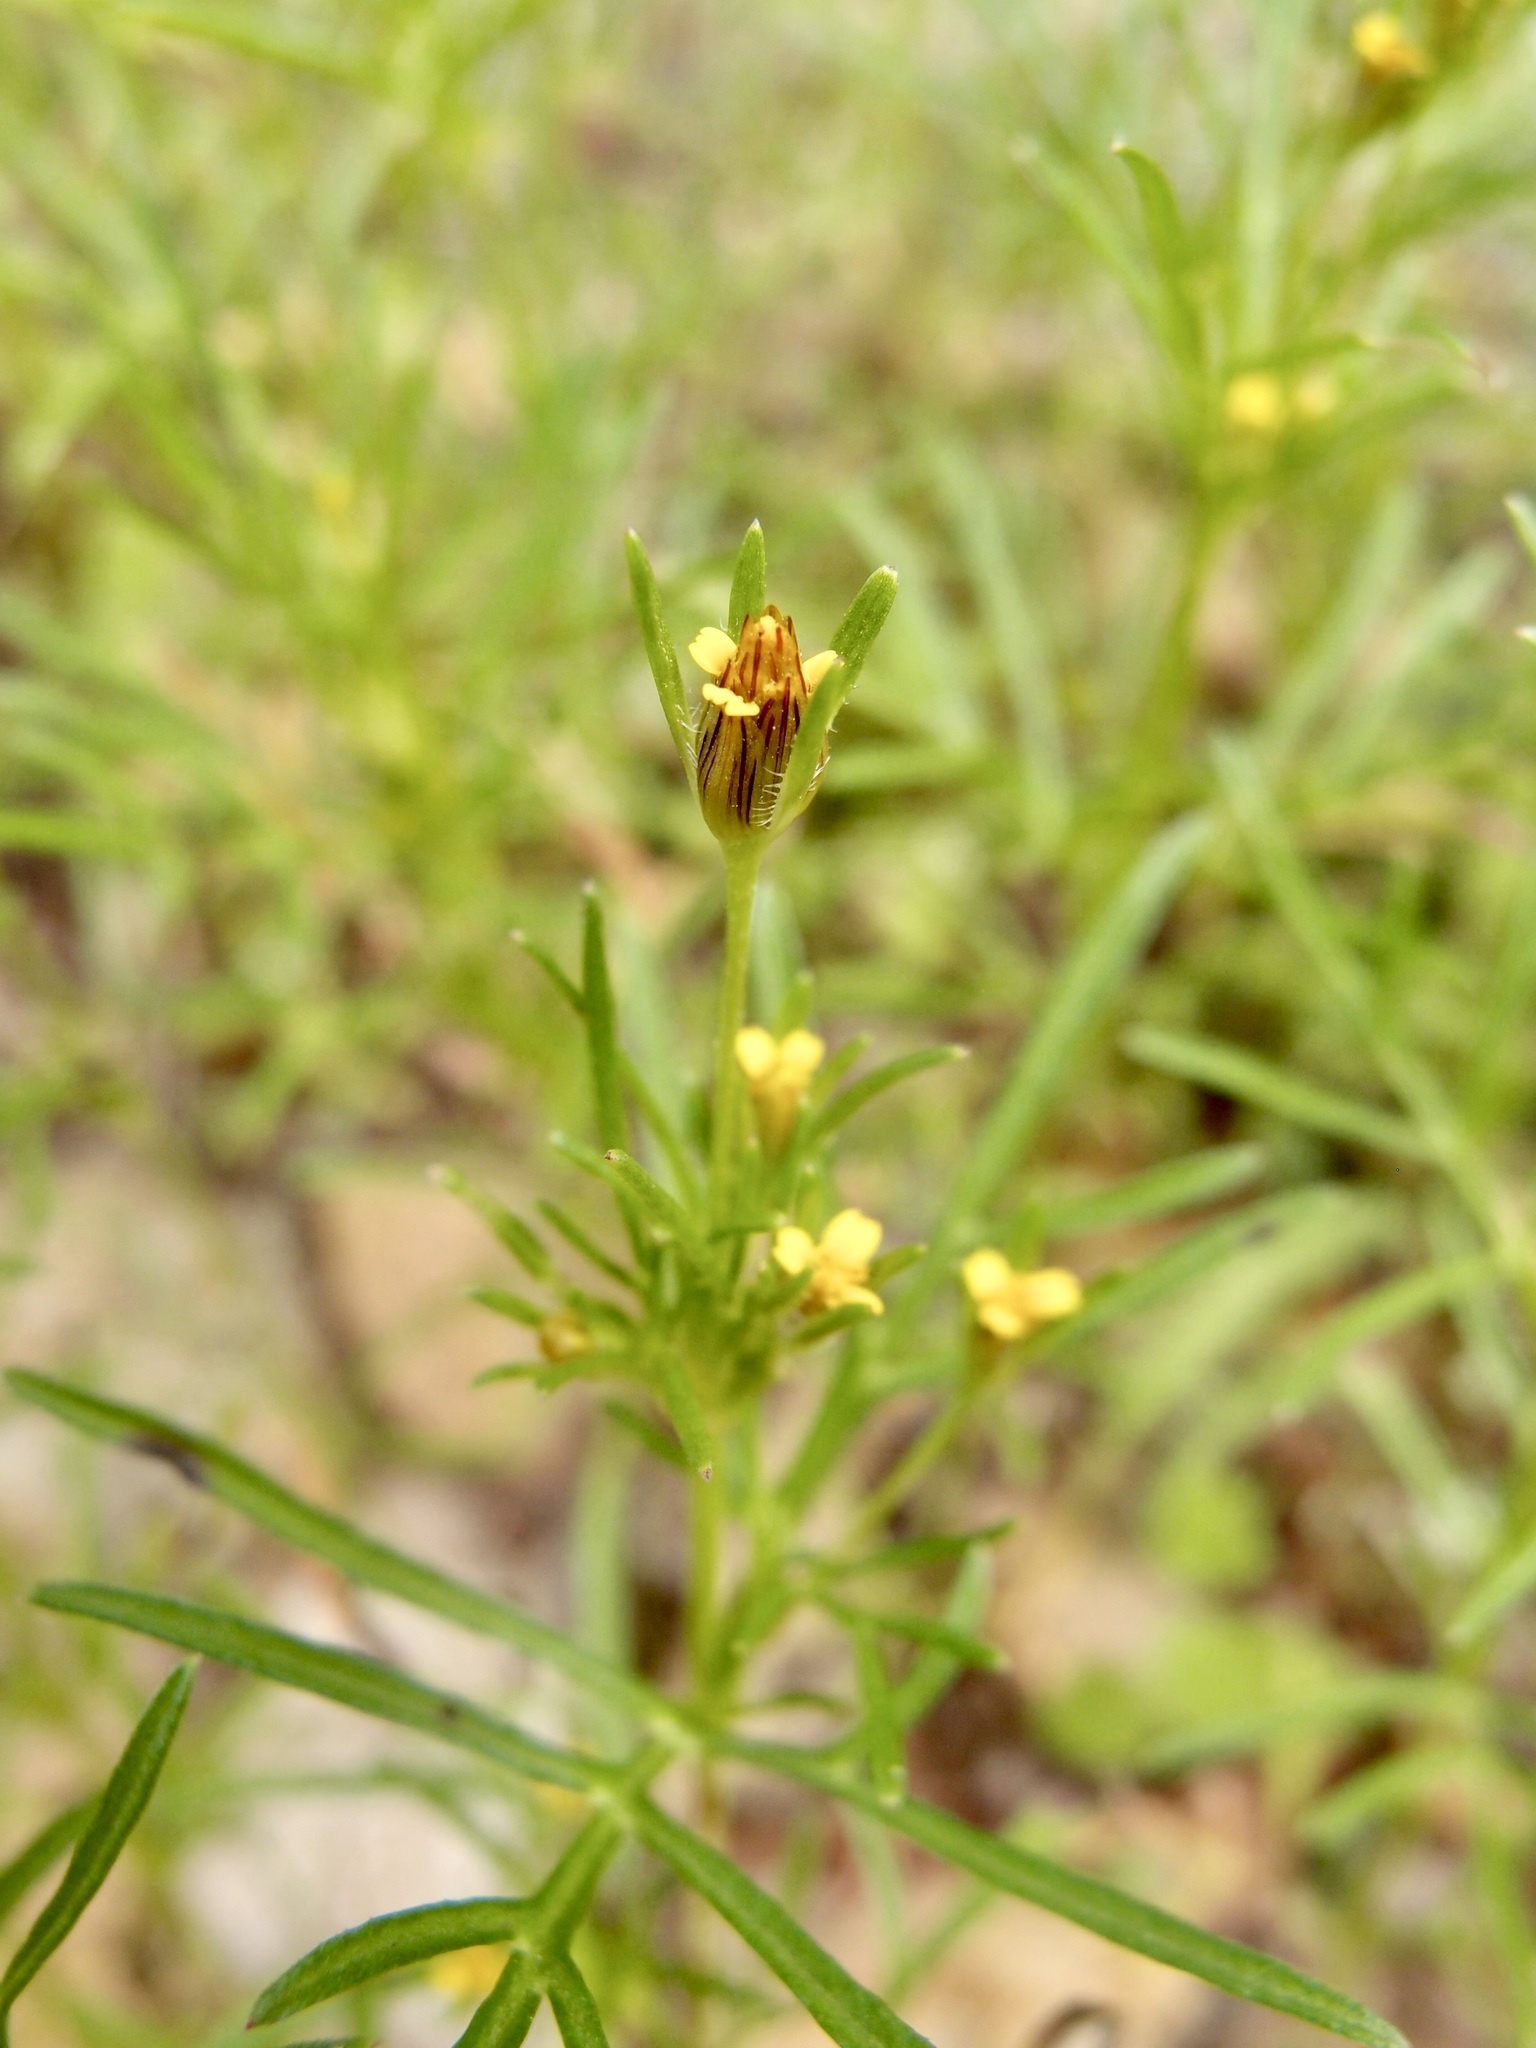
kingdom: Plantae
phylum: Tracheophyta
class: Magnoliopsida
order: Asterales
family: Asteraceae
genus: Heterosperma
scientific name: Heterosperma pinnatum
